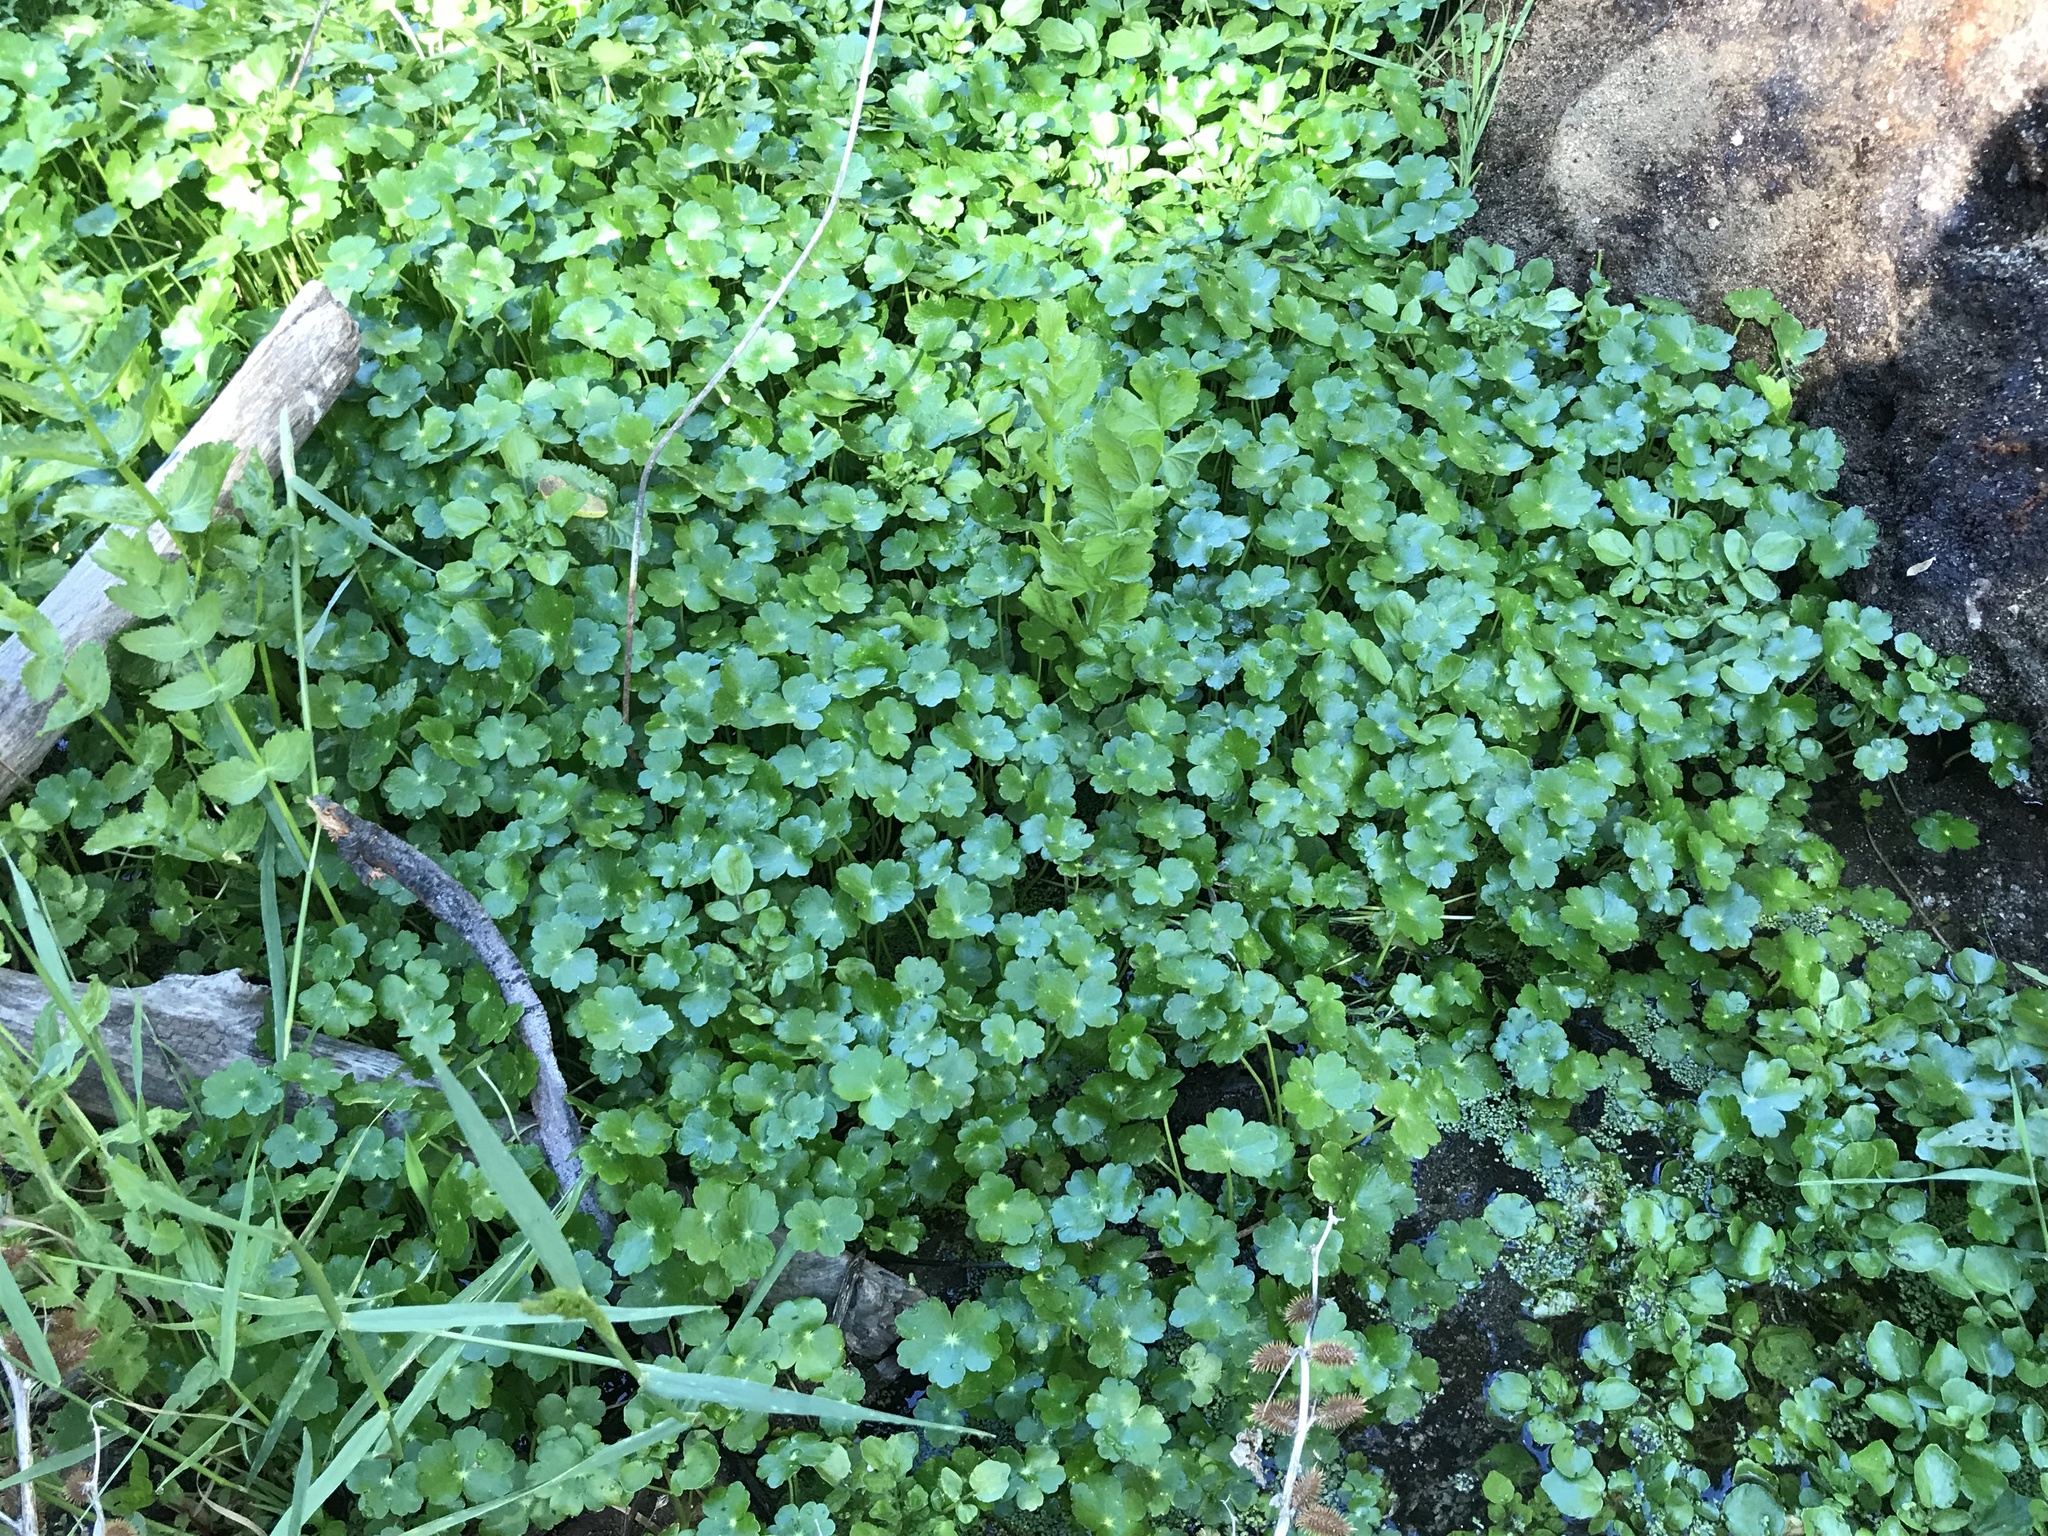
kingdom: Plantae
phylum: Tracheophyta
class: Magnoliopsida
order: Apiales
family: Araliaceae
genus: Hydrocotyle
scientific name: Hydrocotyle ranunculoides
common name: Floating pennywort
